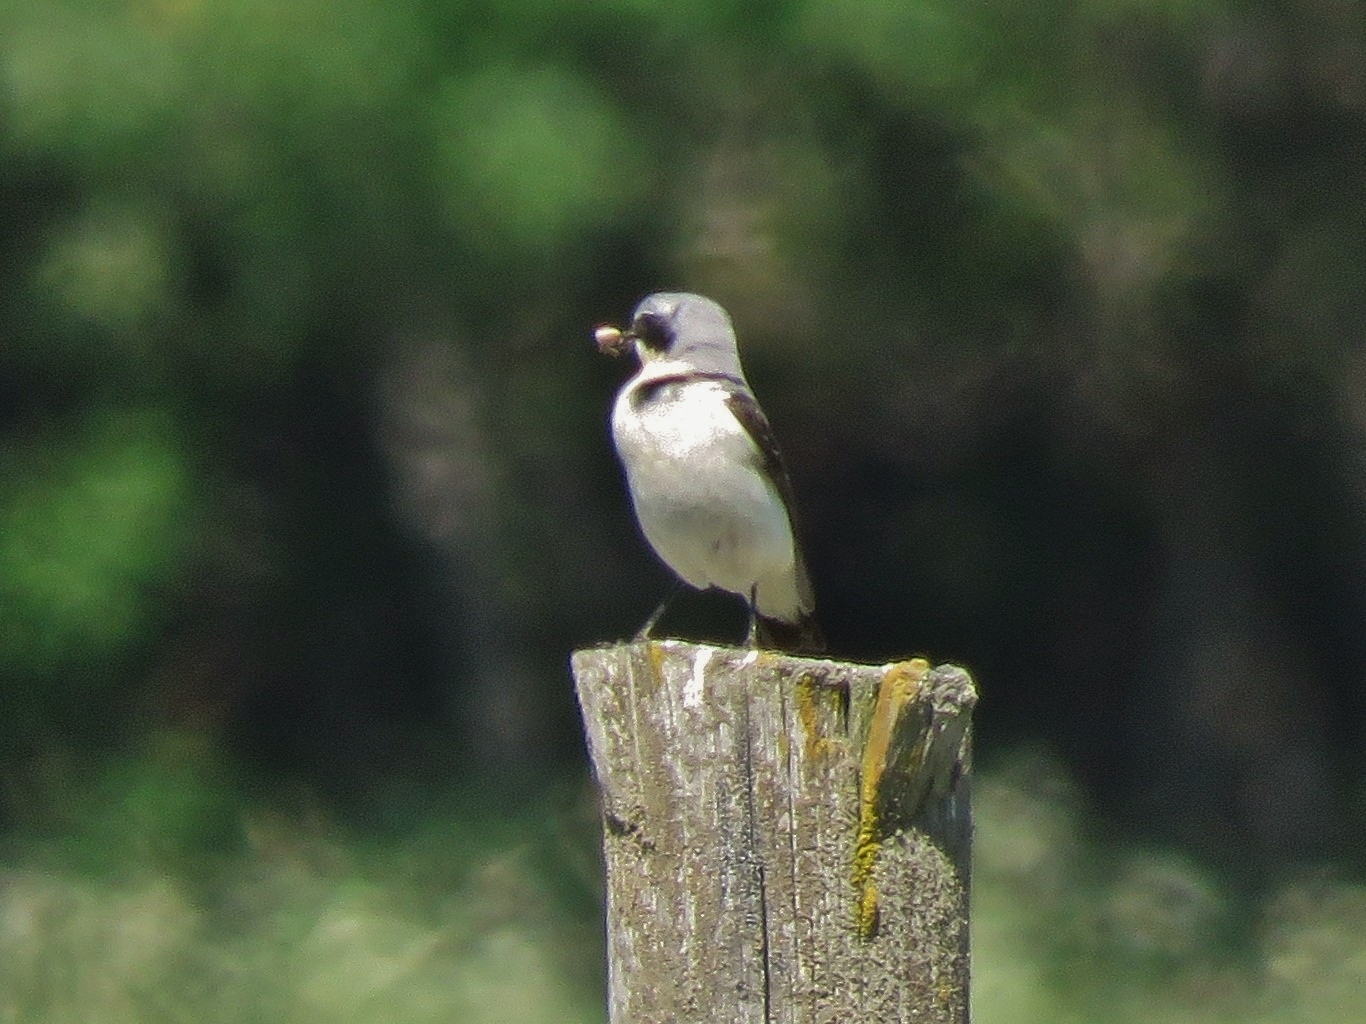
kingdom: Animalia
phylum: Chordata
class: Aves
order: Passeriformes
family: Muscicapidae
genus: Oenanthe
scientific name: Oenanthe oenanthe
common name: Northern wheatear
